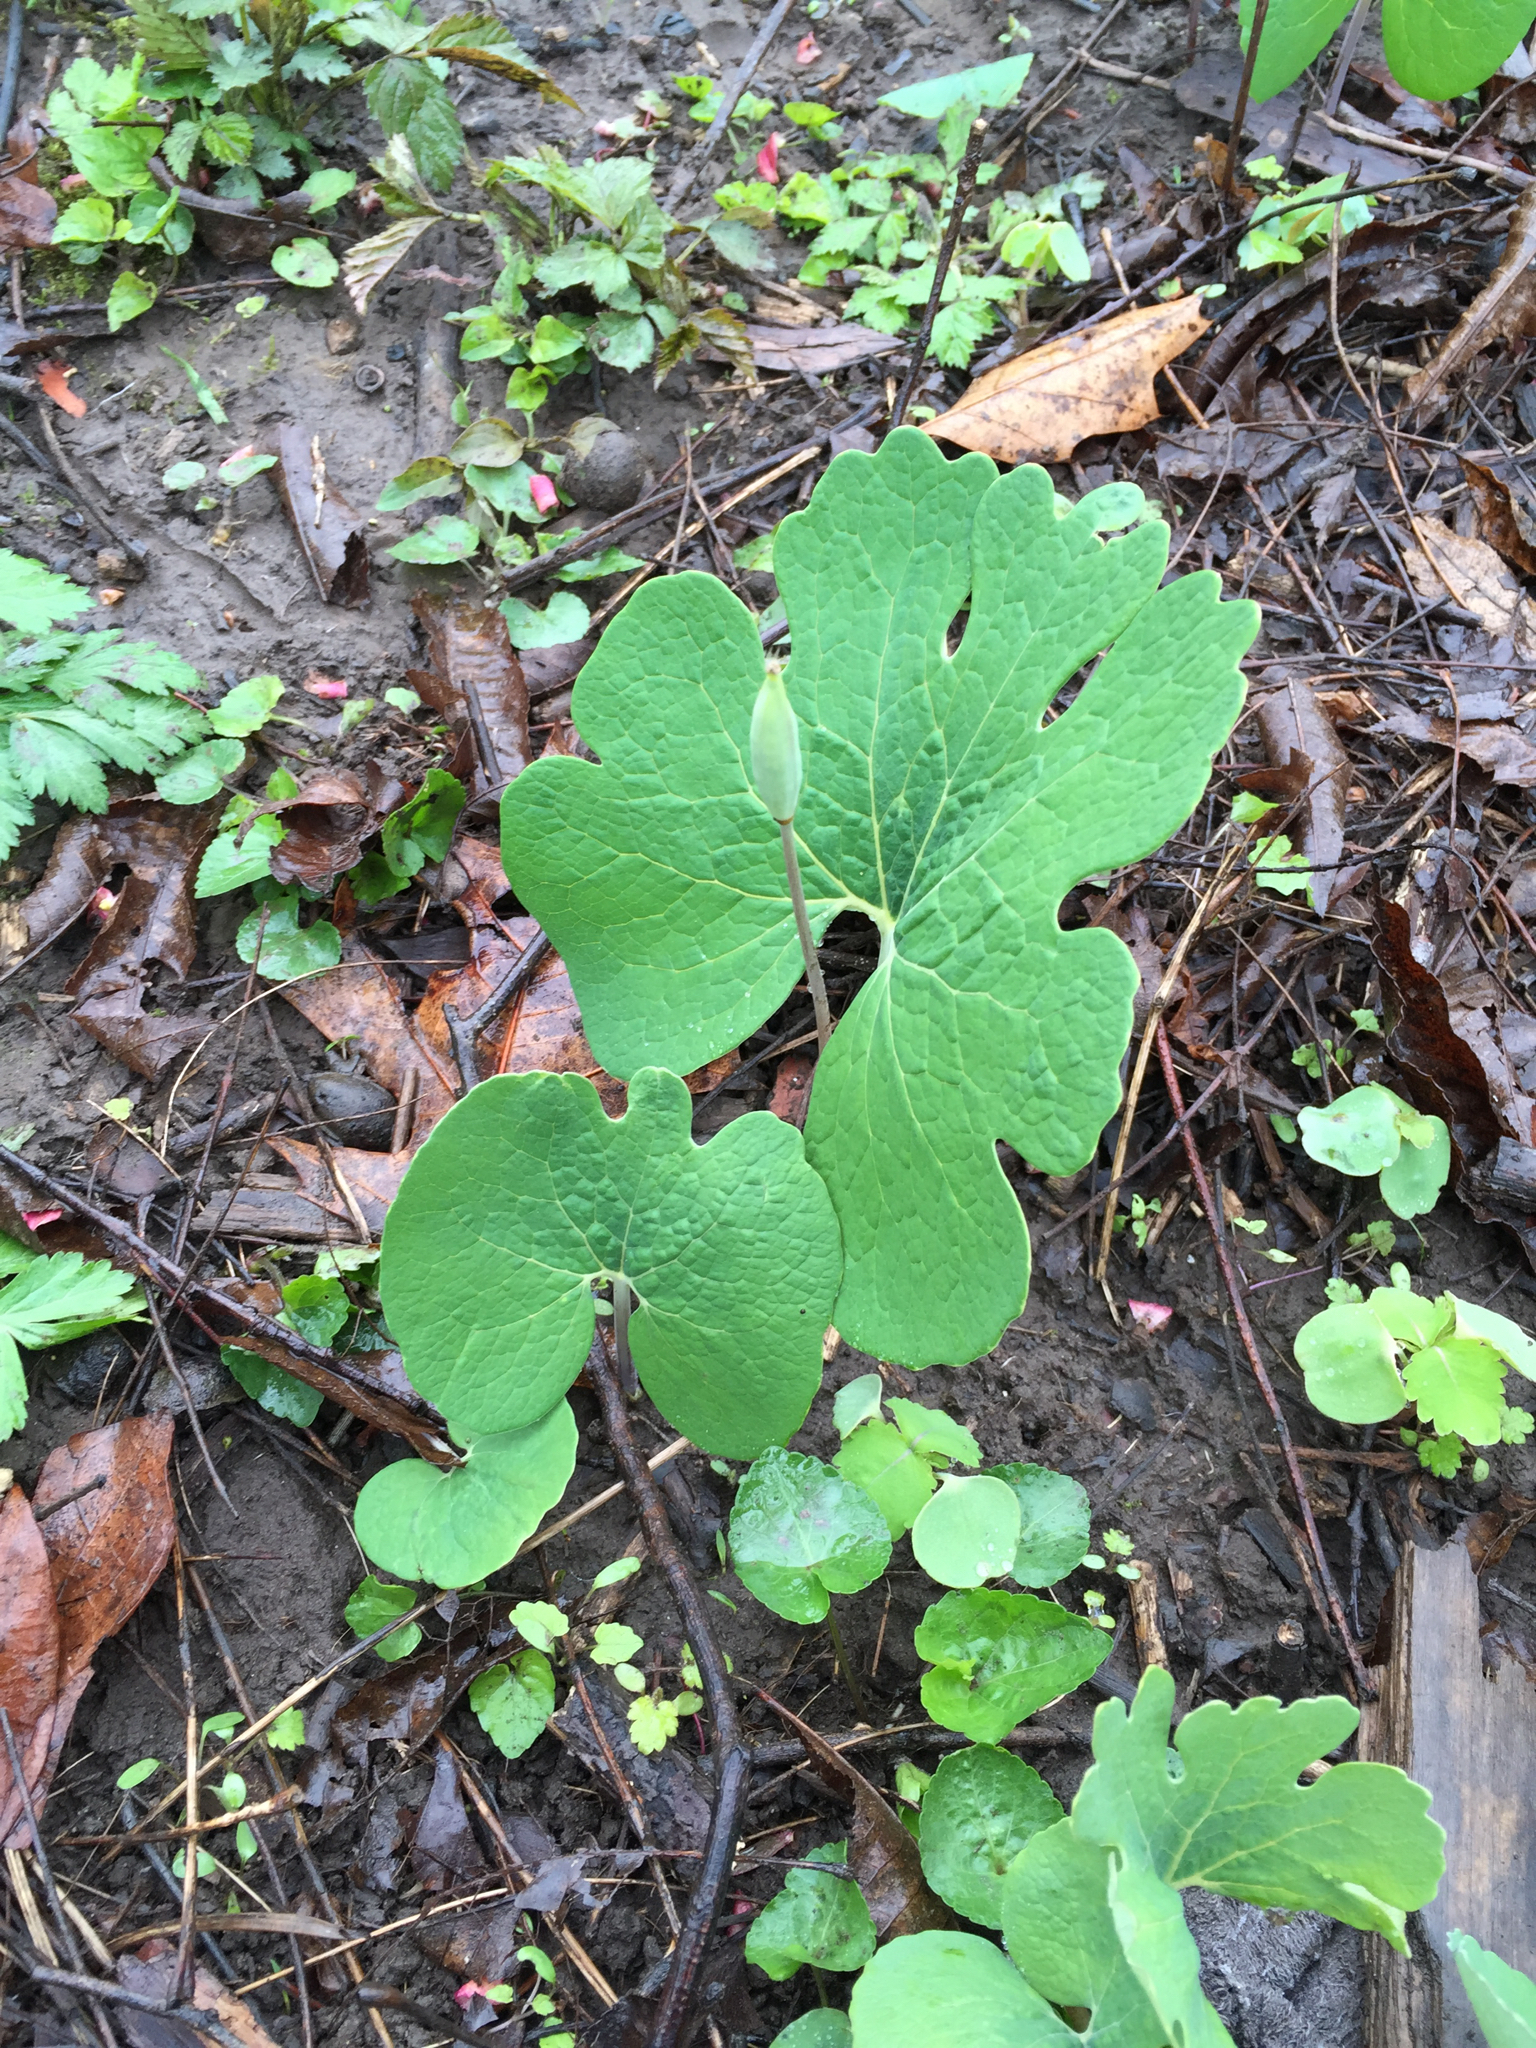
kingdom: Plantae
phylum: Tracheophyta
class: Magnoliopsida
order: Ranunculales
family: Papaveraceae
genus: Sanguinaria
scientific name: Sanguinaria canadensis
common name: Bloodroot
